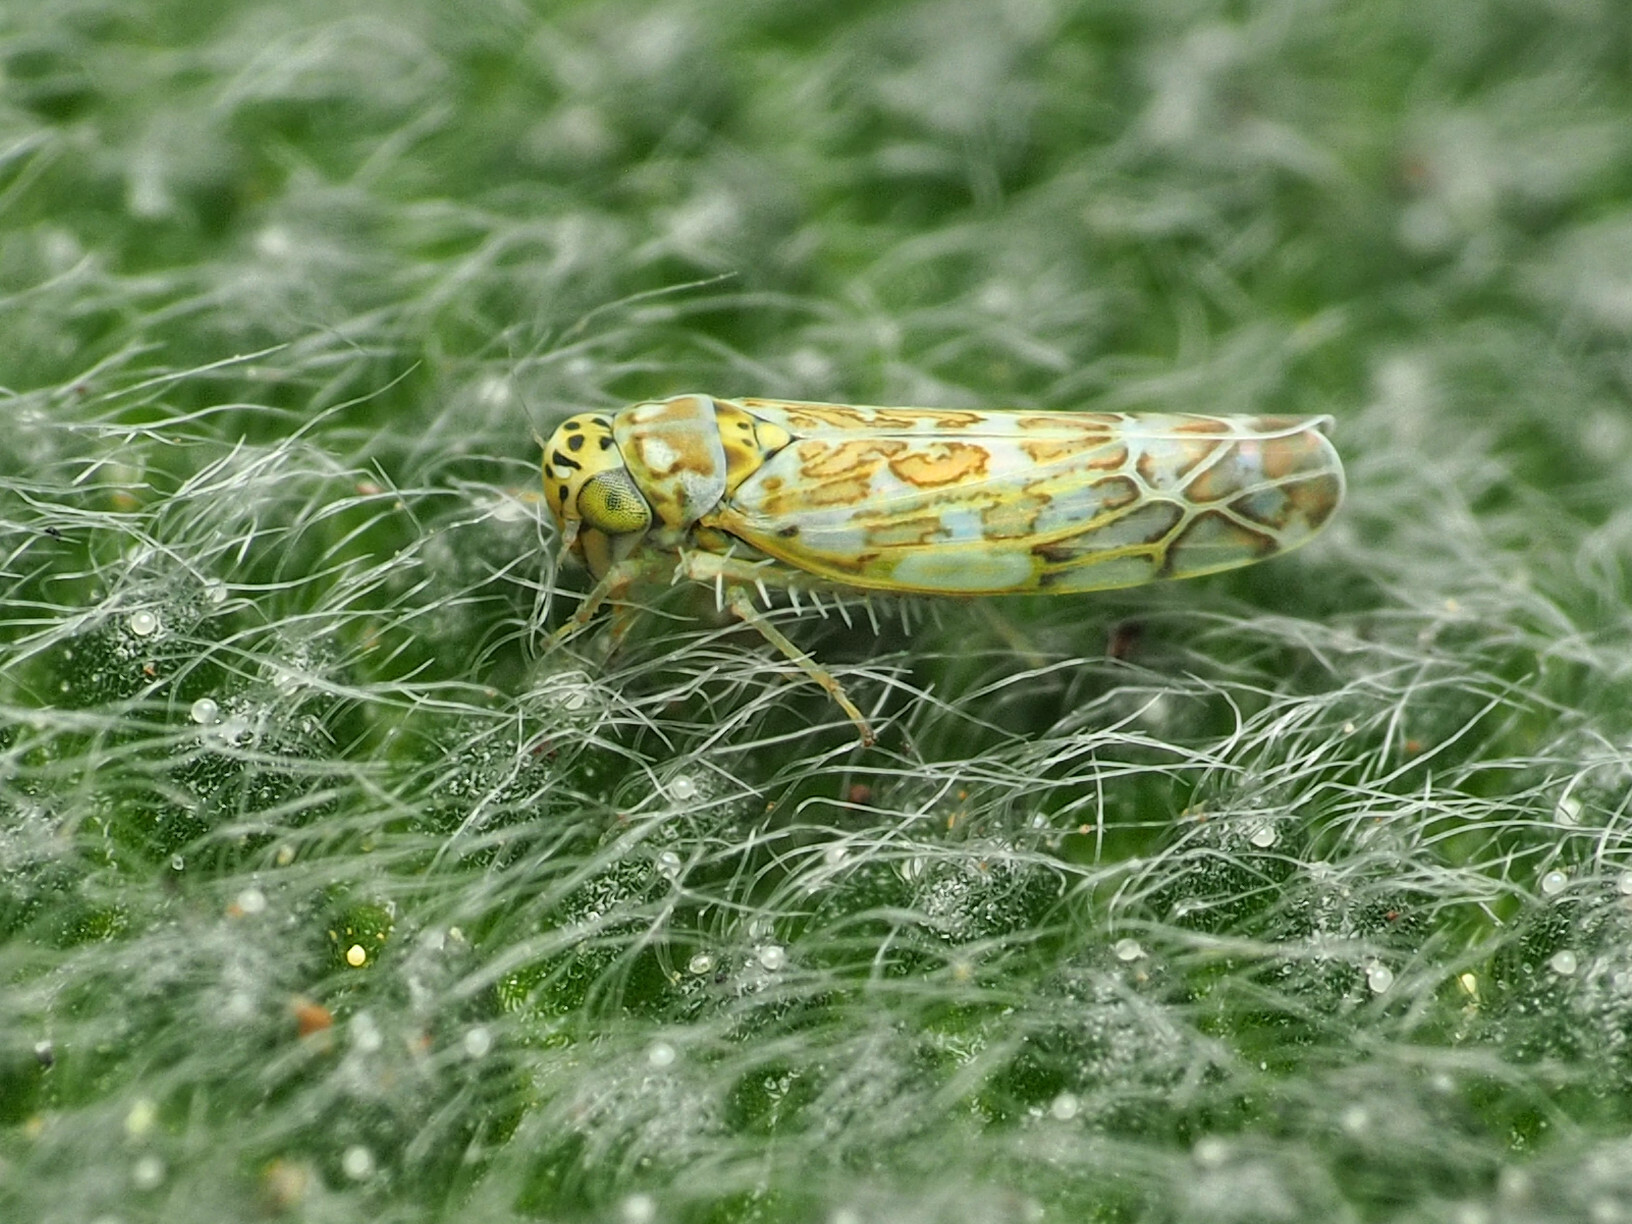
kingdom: Animalia
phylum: Arthropoda
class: Insecta
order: Hemiptera
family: Cicadellidae
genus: Eupteryx
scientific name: Eupteryx decemnotata
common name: Ligurian leafhopper
